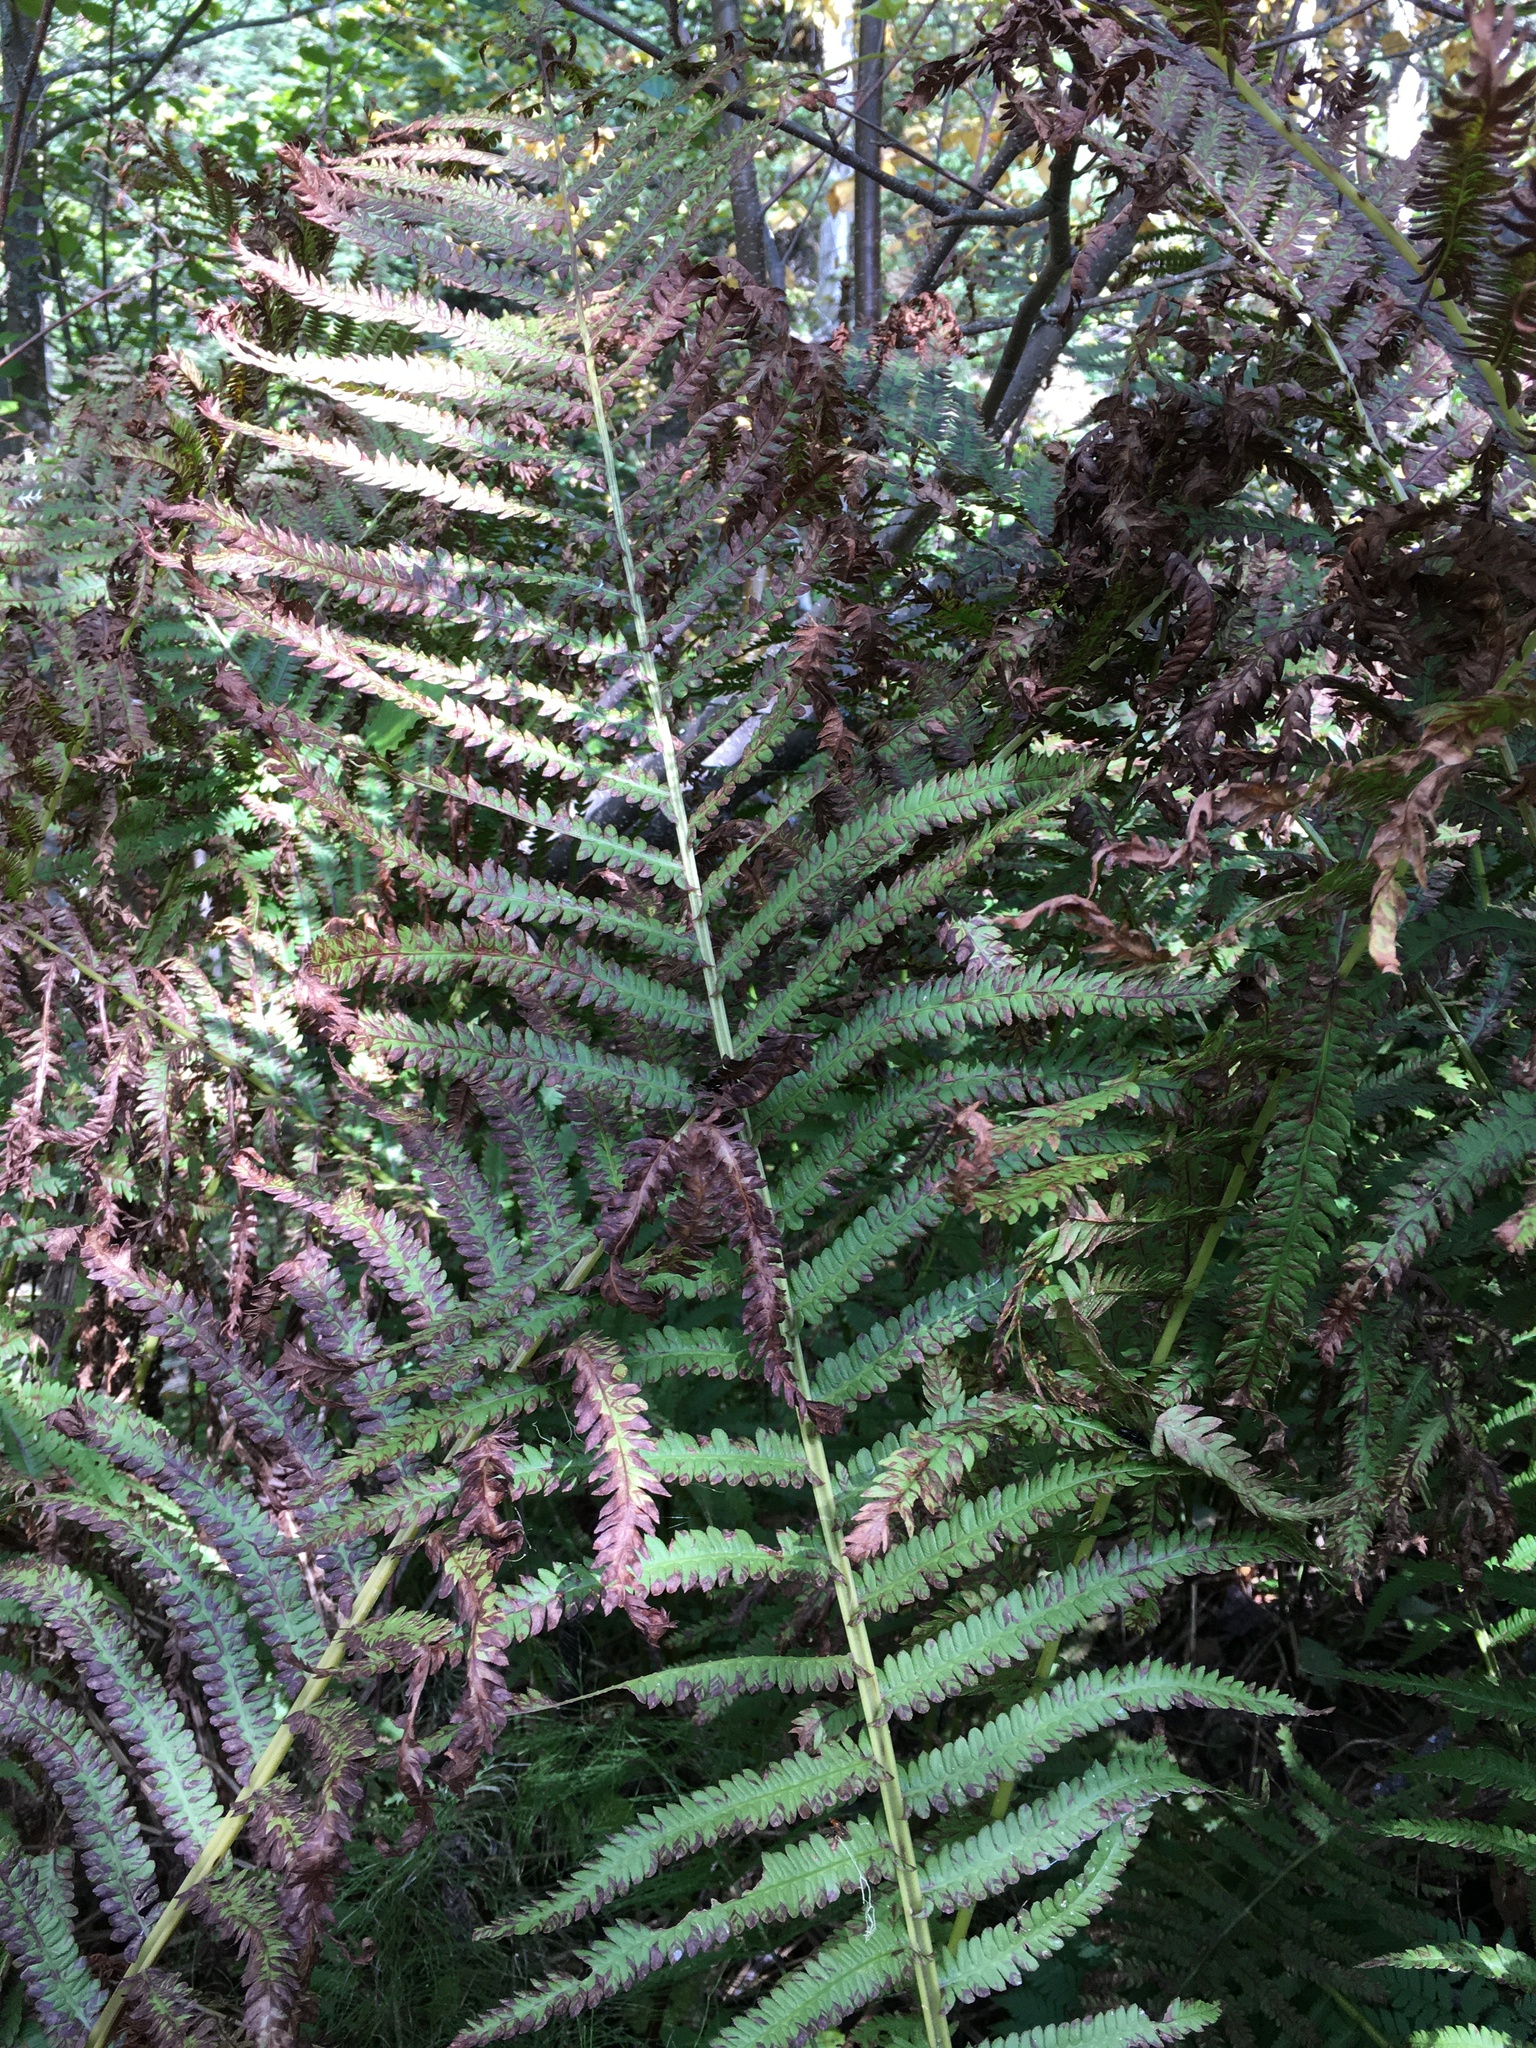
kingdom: Plantae
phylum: Tracheophyta
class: Polypodiopsida
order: Polypodiales
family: Onocleaceae
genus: Matteuccia
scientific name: Matteuccia struthiopteris
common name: Ostrich fern
